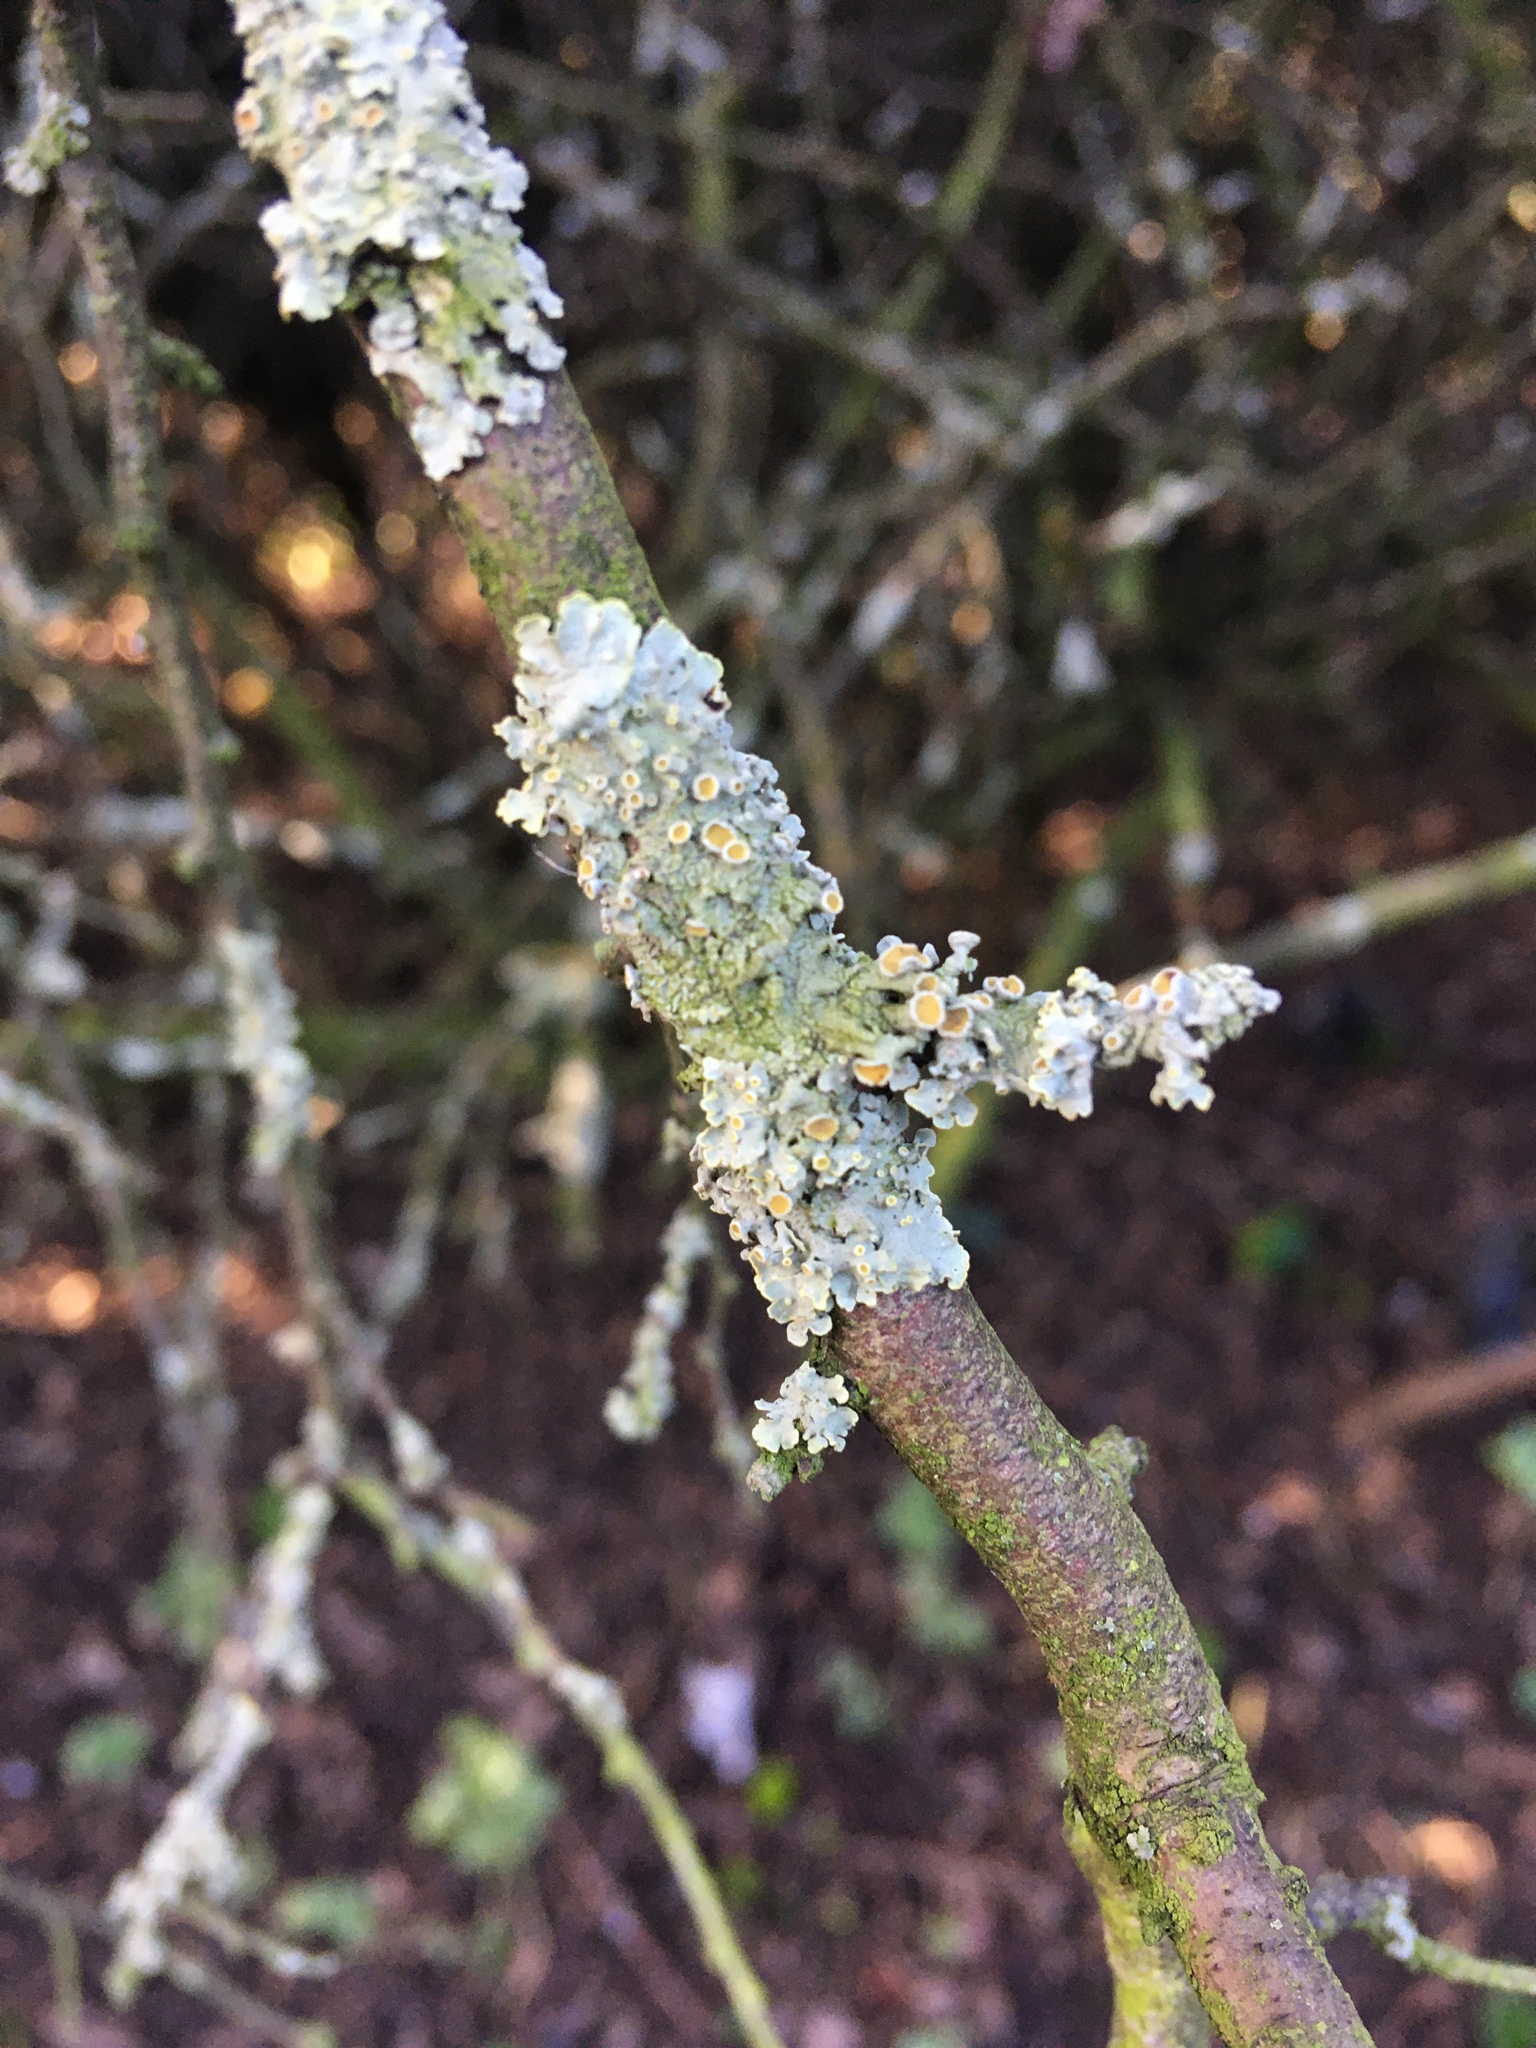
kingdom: Fungi
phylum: Ascomycota
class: Lecanoromycetes
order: Teloschistales
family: Teloschistaceae
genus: Xanthoria
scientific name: Xanthoria parietina
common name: Common orange lichen
